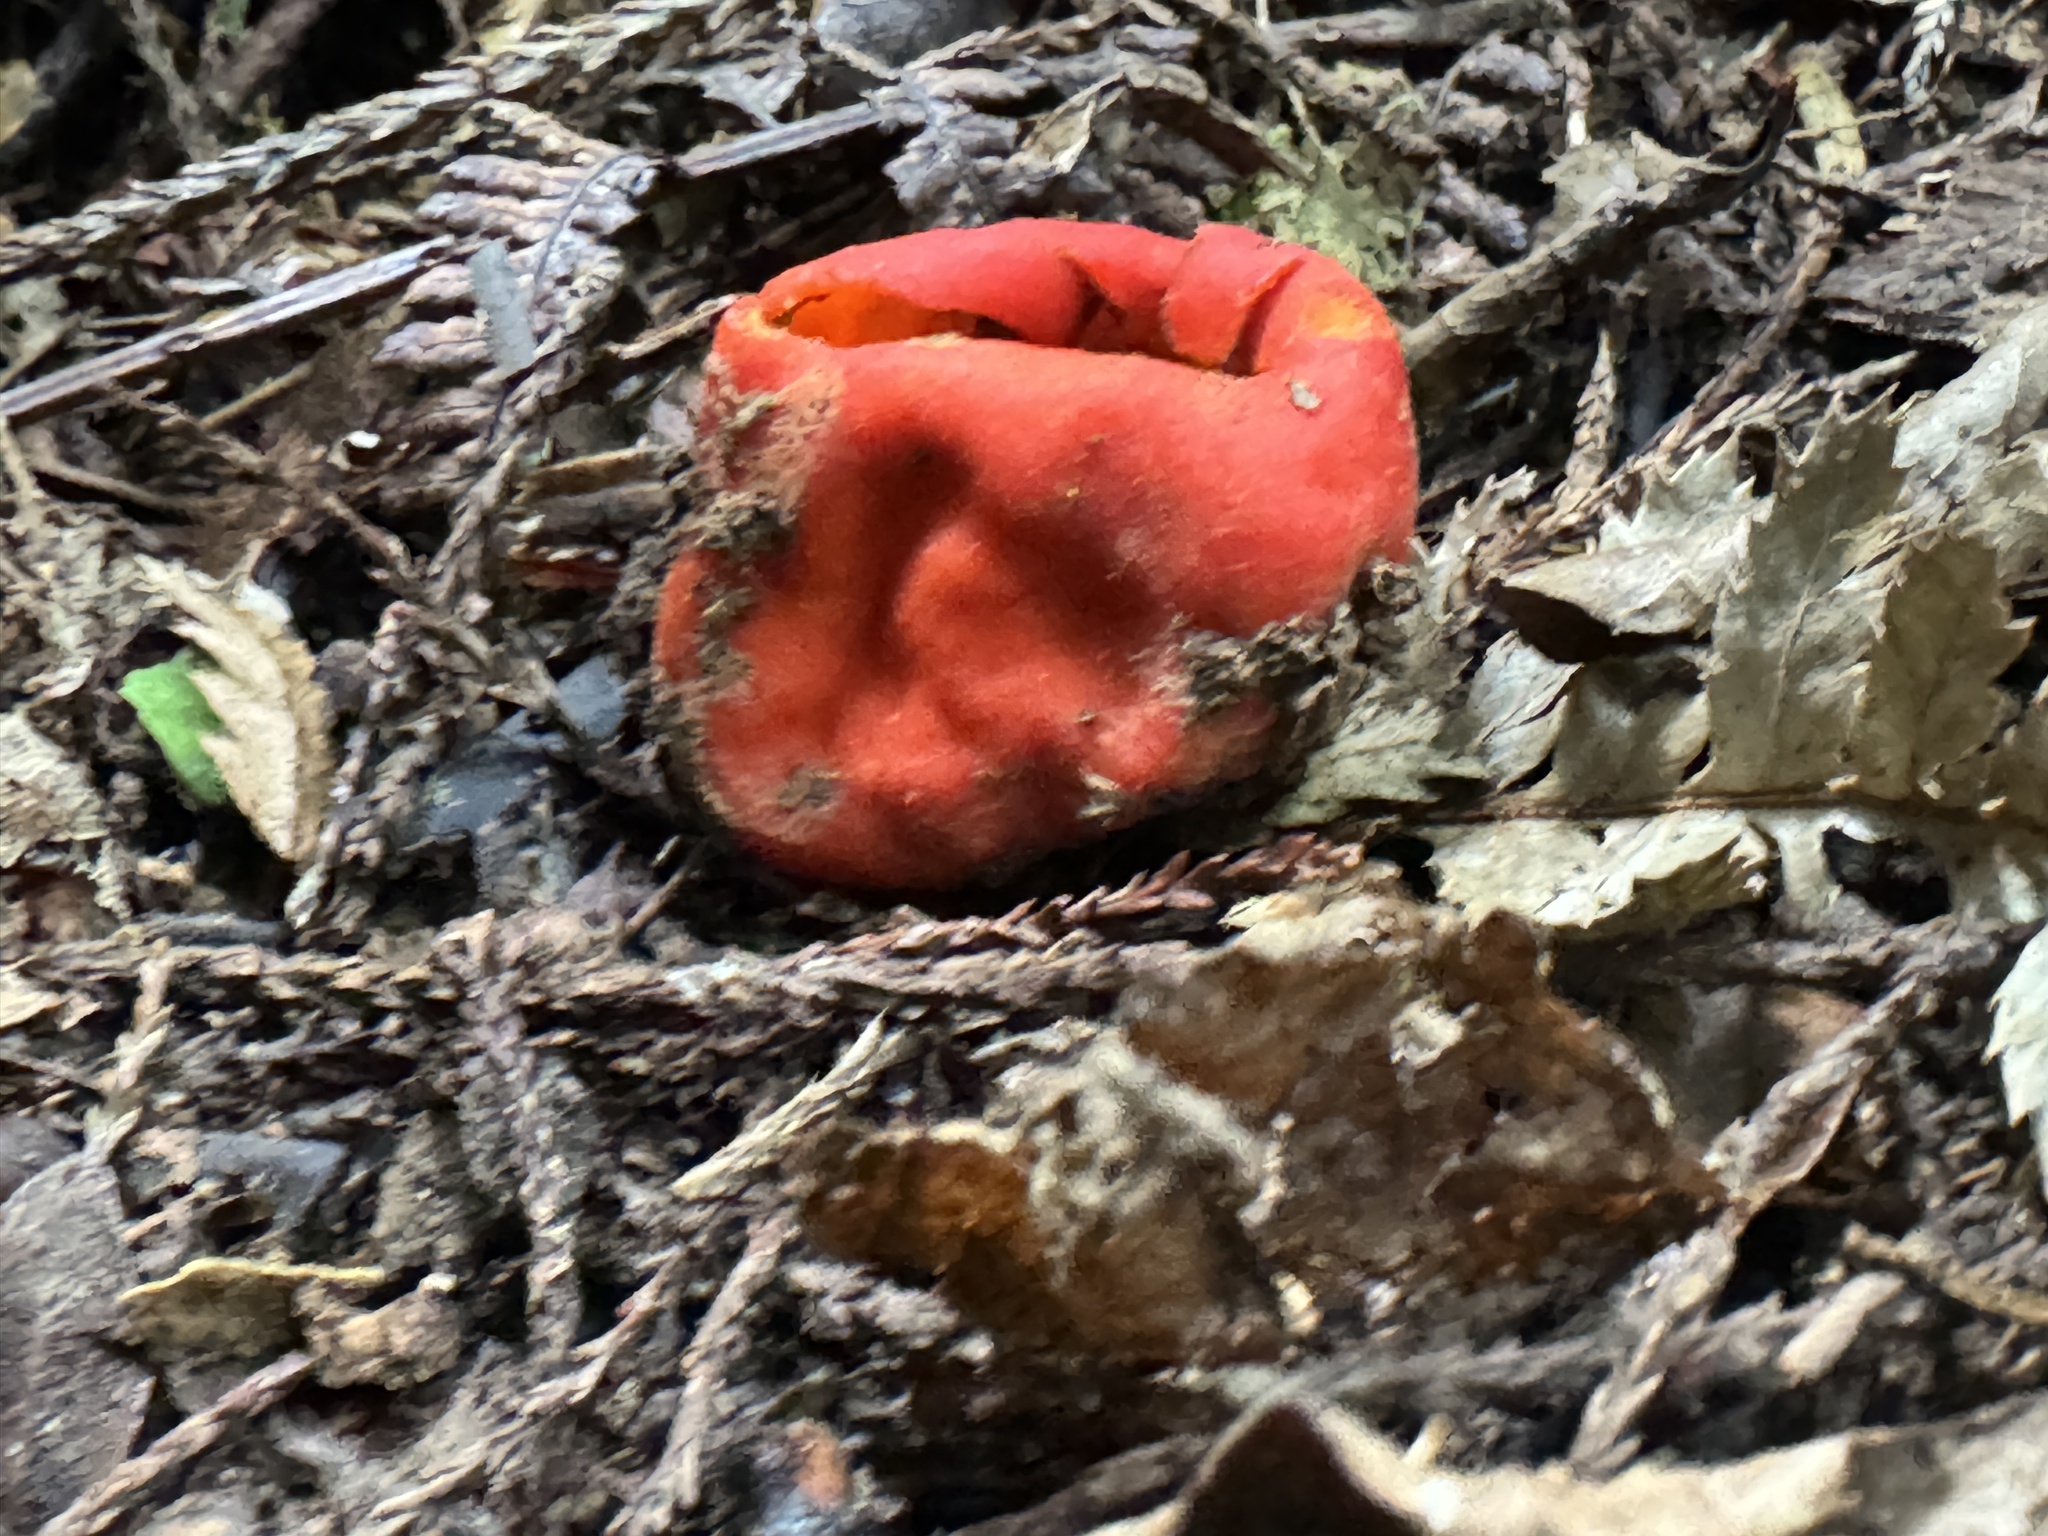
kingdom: Fungi
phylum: Ascomycota
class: Pezizomycetes
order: Pezizales
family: Pyronemataceae
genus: Paurocotylis
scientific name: Paurocotylis pila
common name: Scarlet berry truffle
